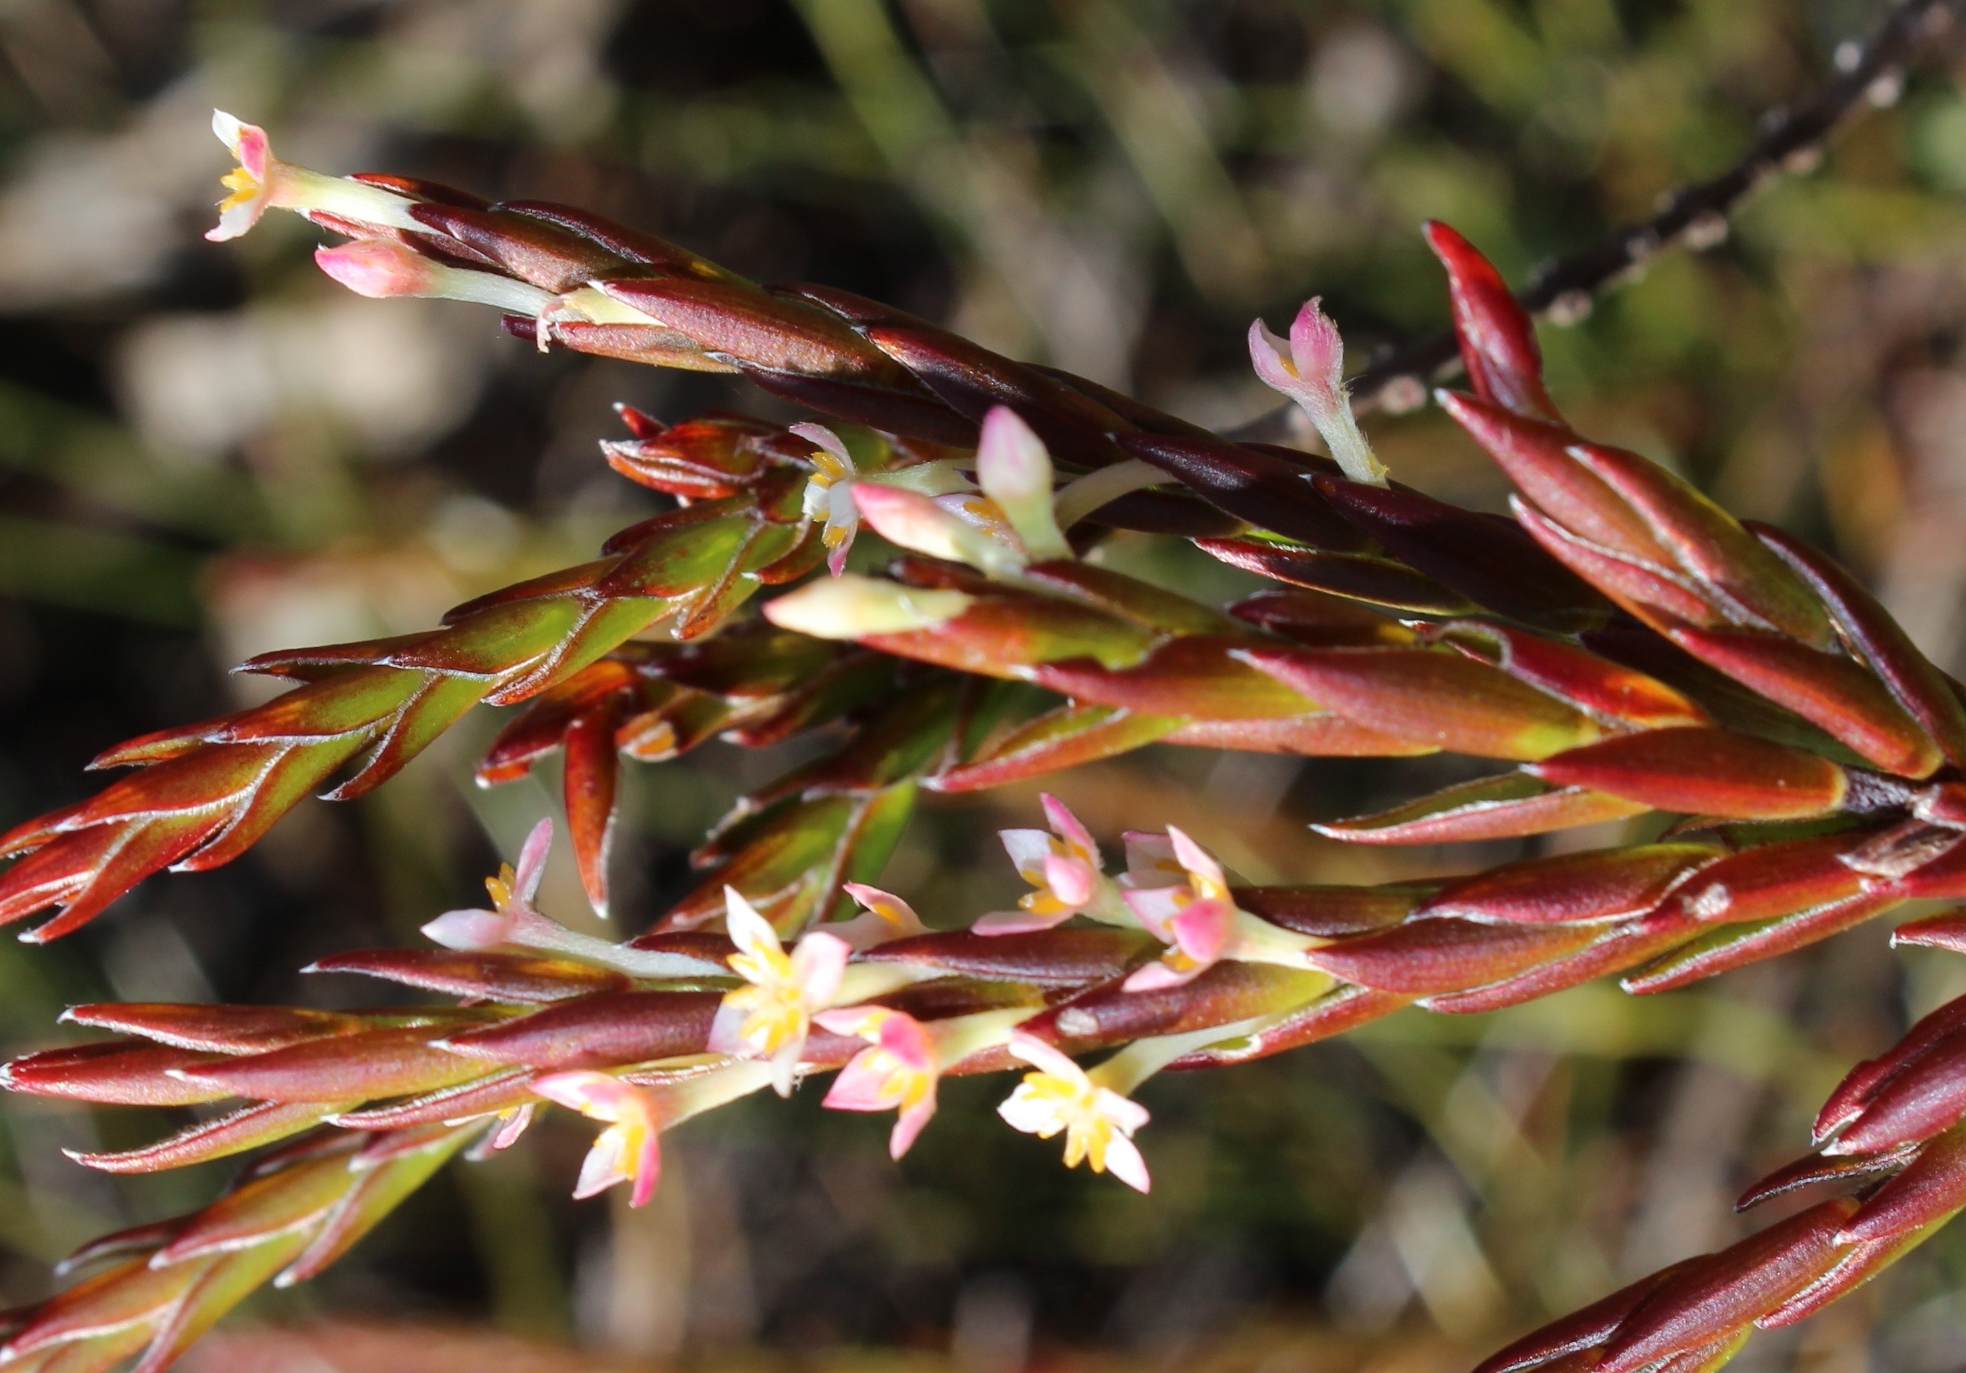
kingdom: Plantae
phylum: Tracheophyta
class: Magnoliopsida
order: Malvales
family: Thymelaeaceae
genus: Struthiola
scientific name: Struthiola ciliata
